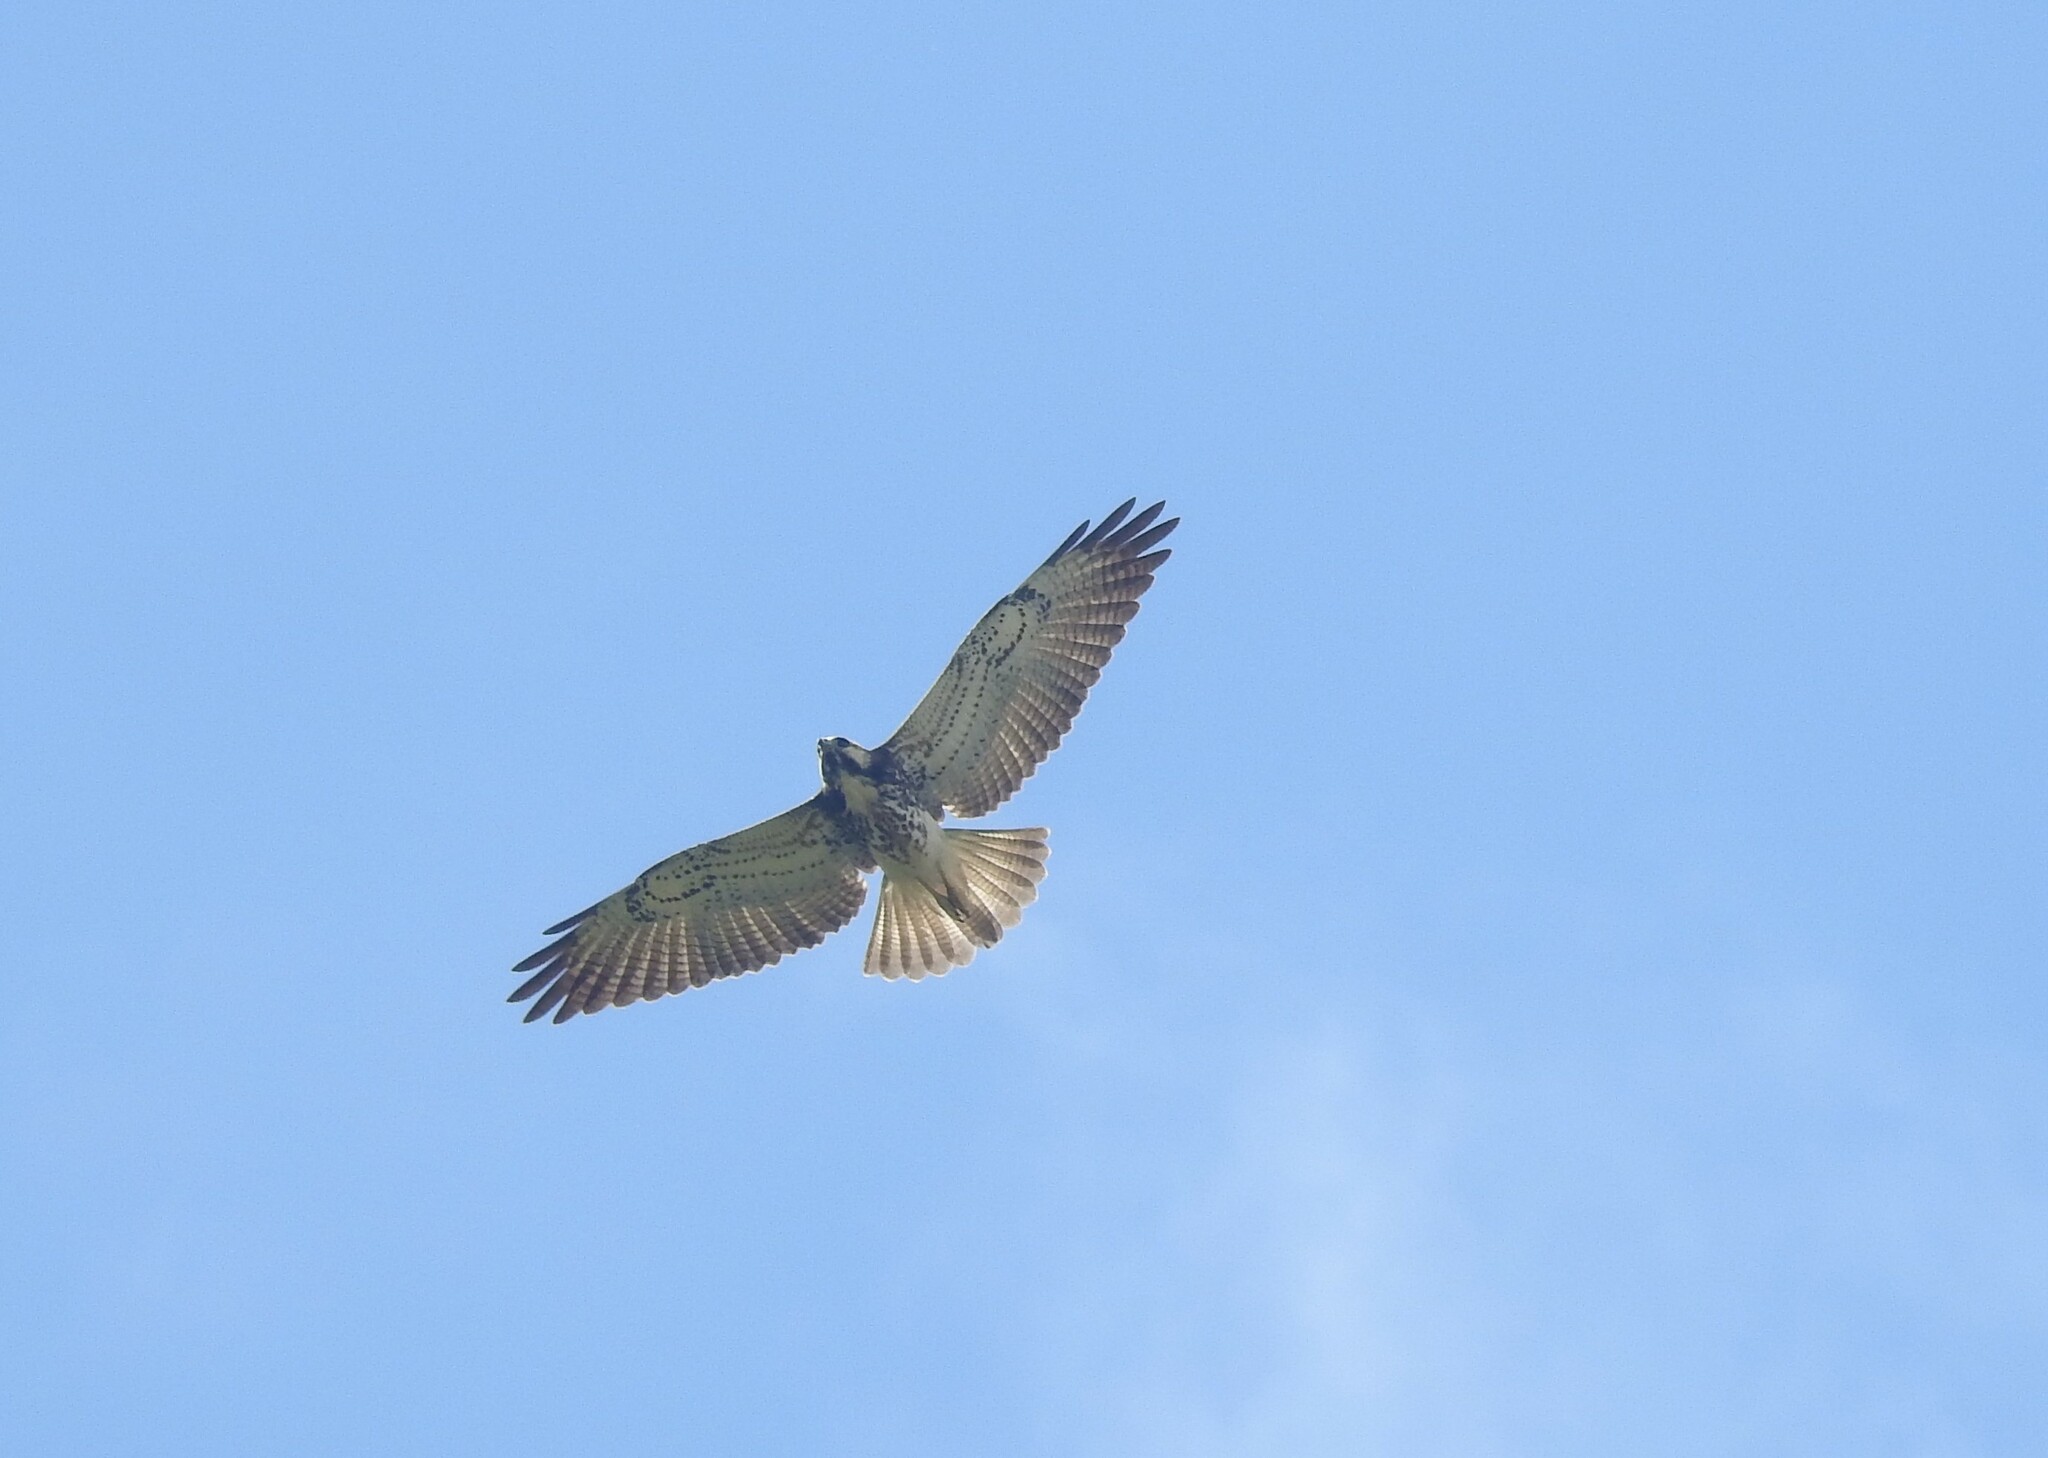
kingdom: Animalia
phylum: Chordata
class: Aves
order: Accipitriformes
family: Accipitridae
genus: Buteo
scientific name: Buteo polyosoma
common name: Variable hawk
